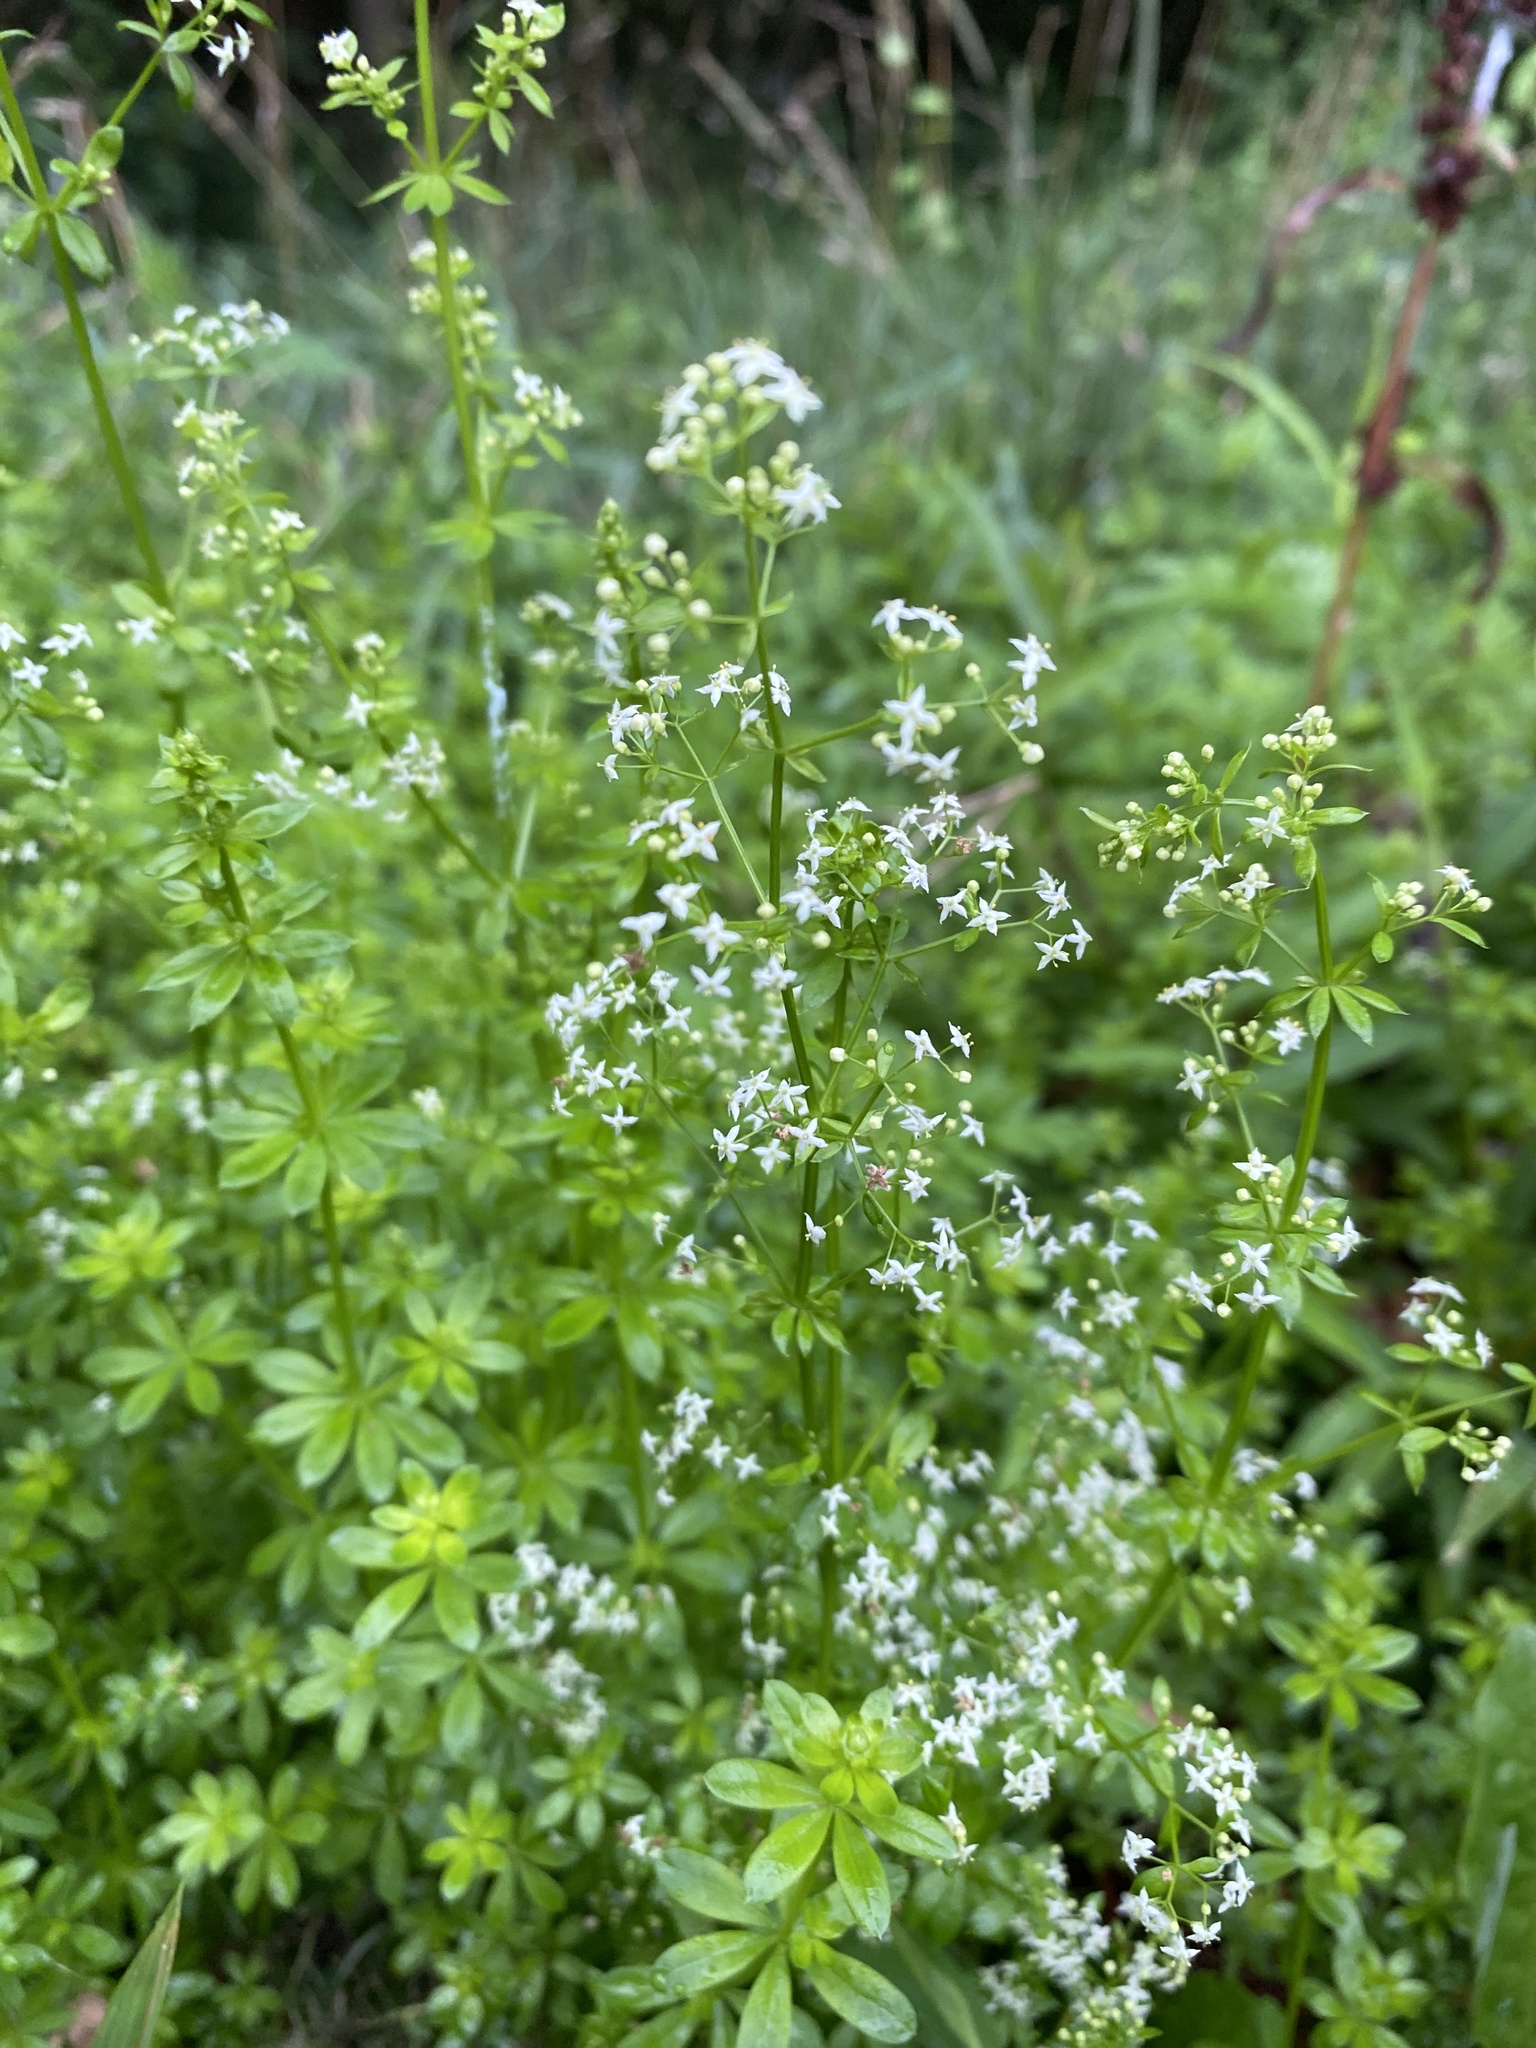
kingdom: Plantae
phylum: Tracheophyta
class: Magnoliopsida
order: Gentianales
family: Rubiaceae
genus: Galium
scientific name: Galium mollugo
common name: Hedge bedstraw
